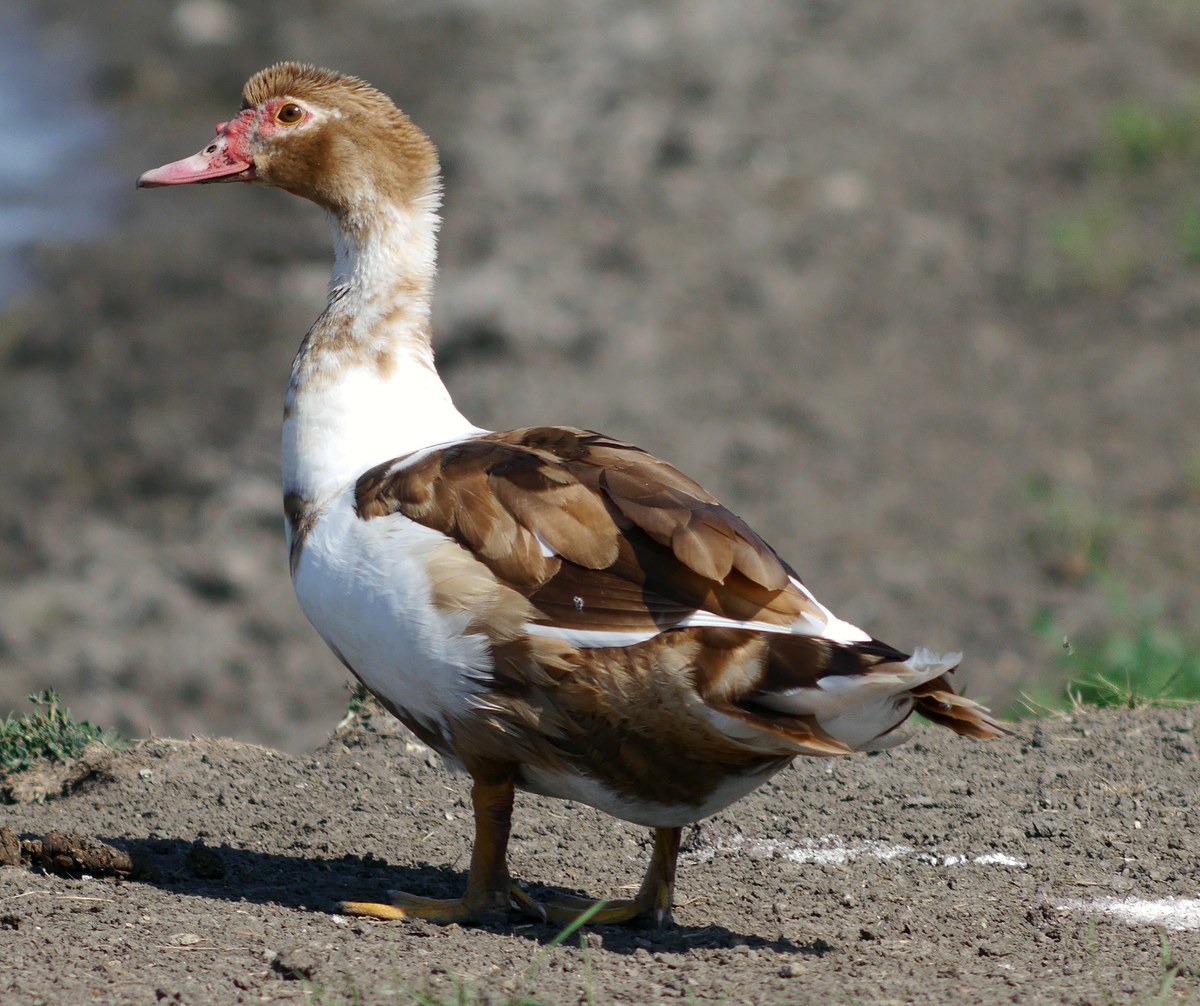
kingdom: Animalia
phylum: Chordata
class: Aves
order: Anseriformes
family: Anatidae
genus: Cairina
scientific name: Cairina moschata
